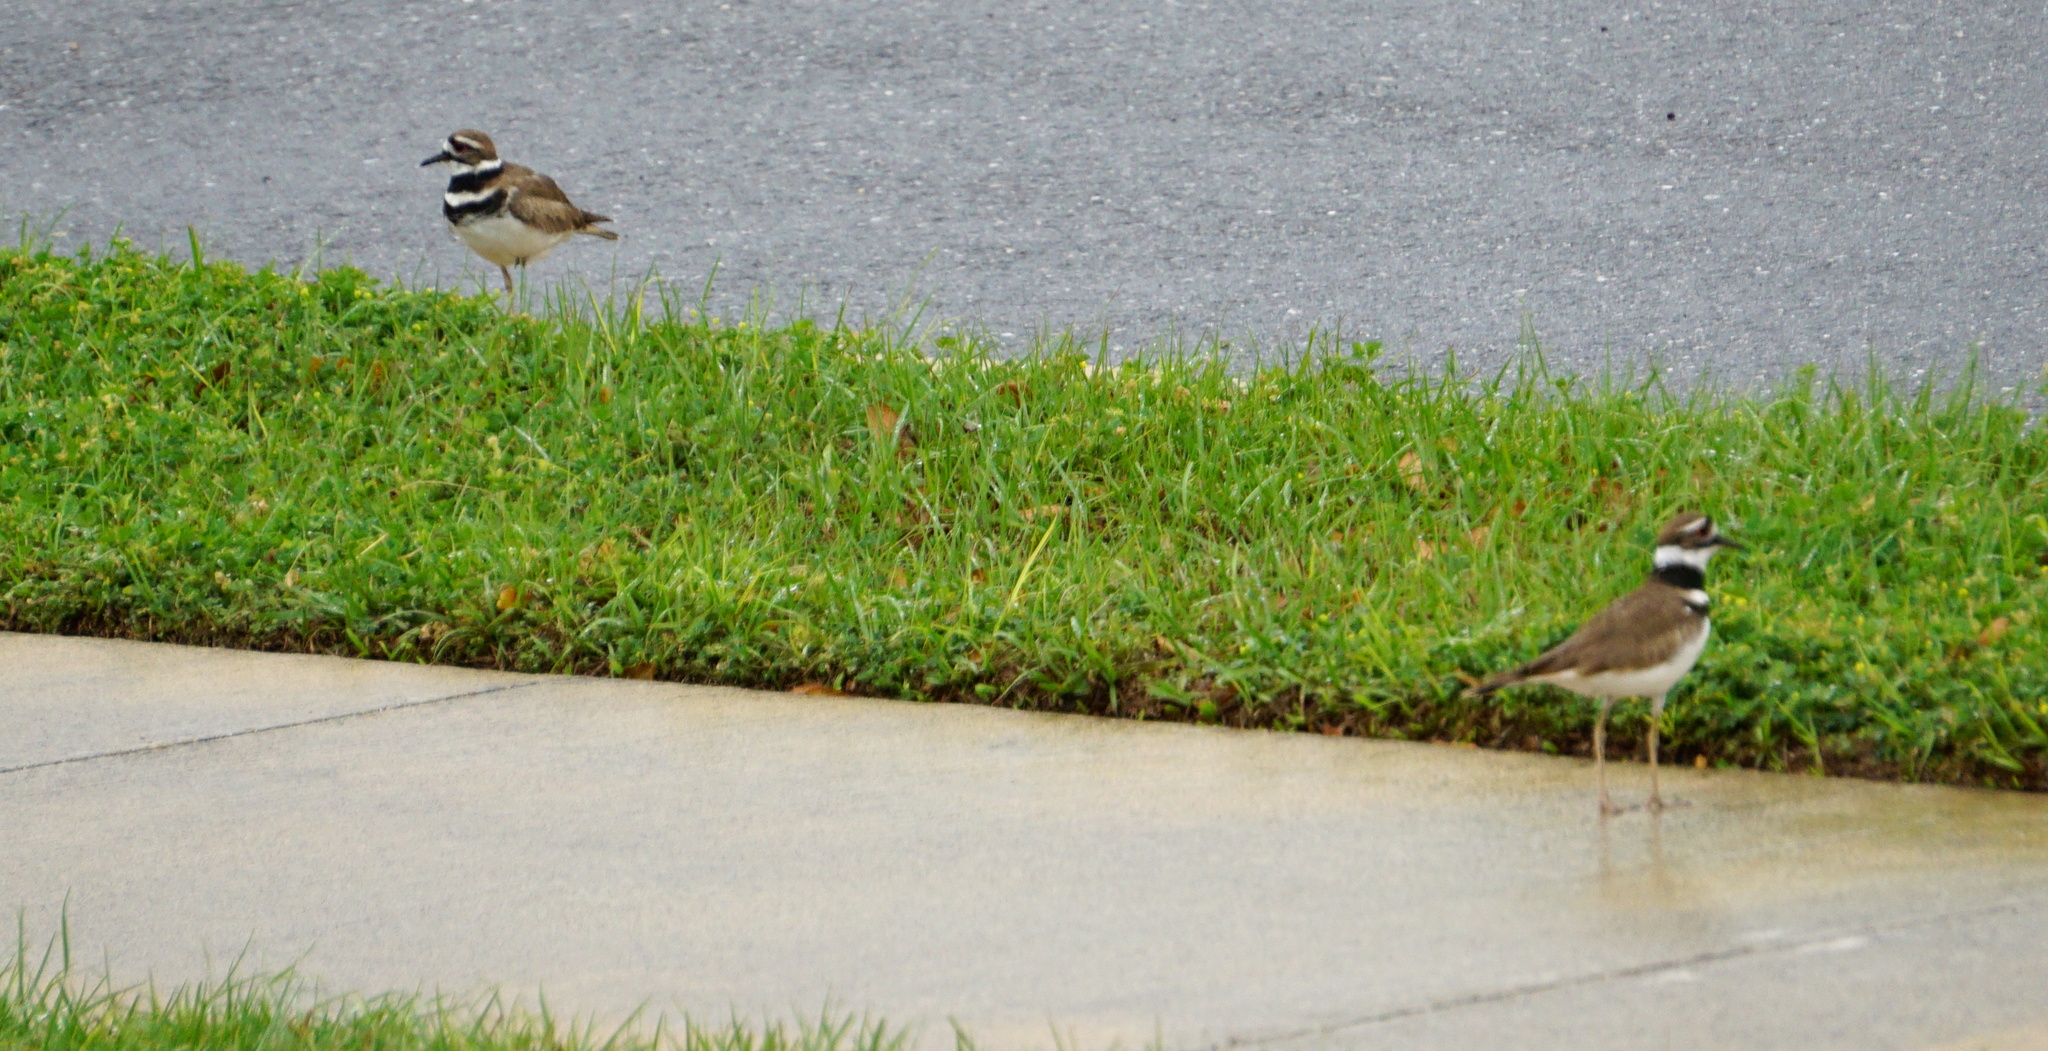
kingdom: Animalia
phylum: Chordata
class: Aves
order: Charadriiformes
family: Charadriidae
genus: Charadrius
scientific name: Charadrius vociferus
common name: Killdeer
